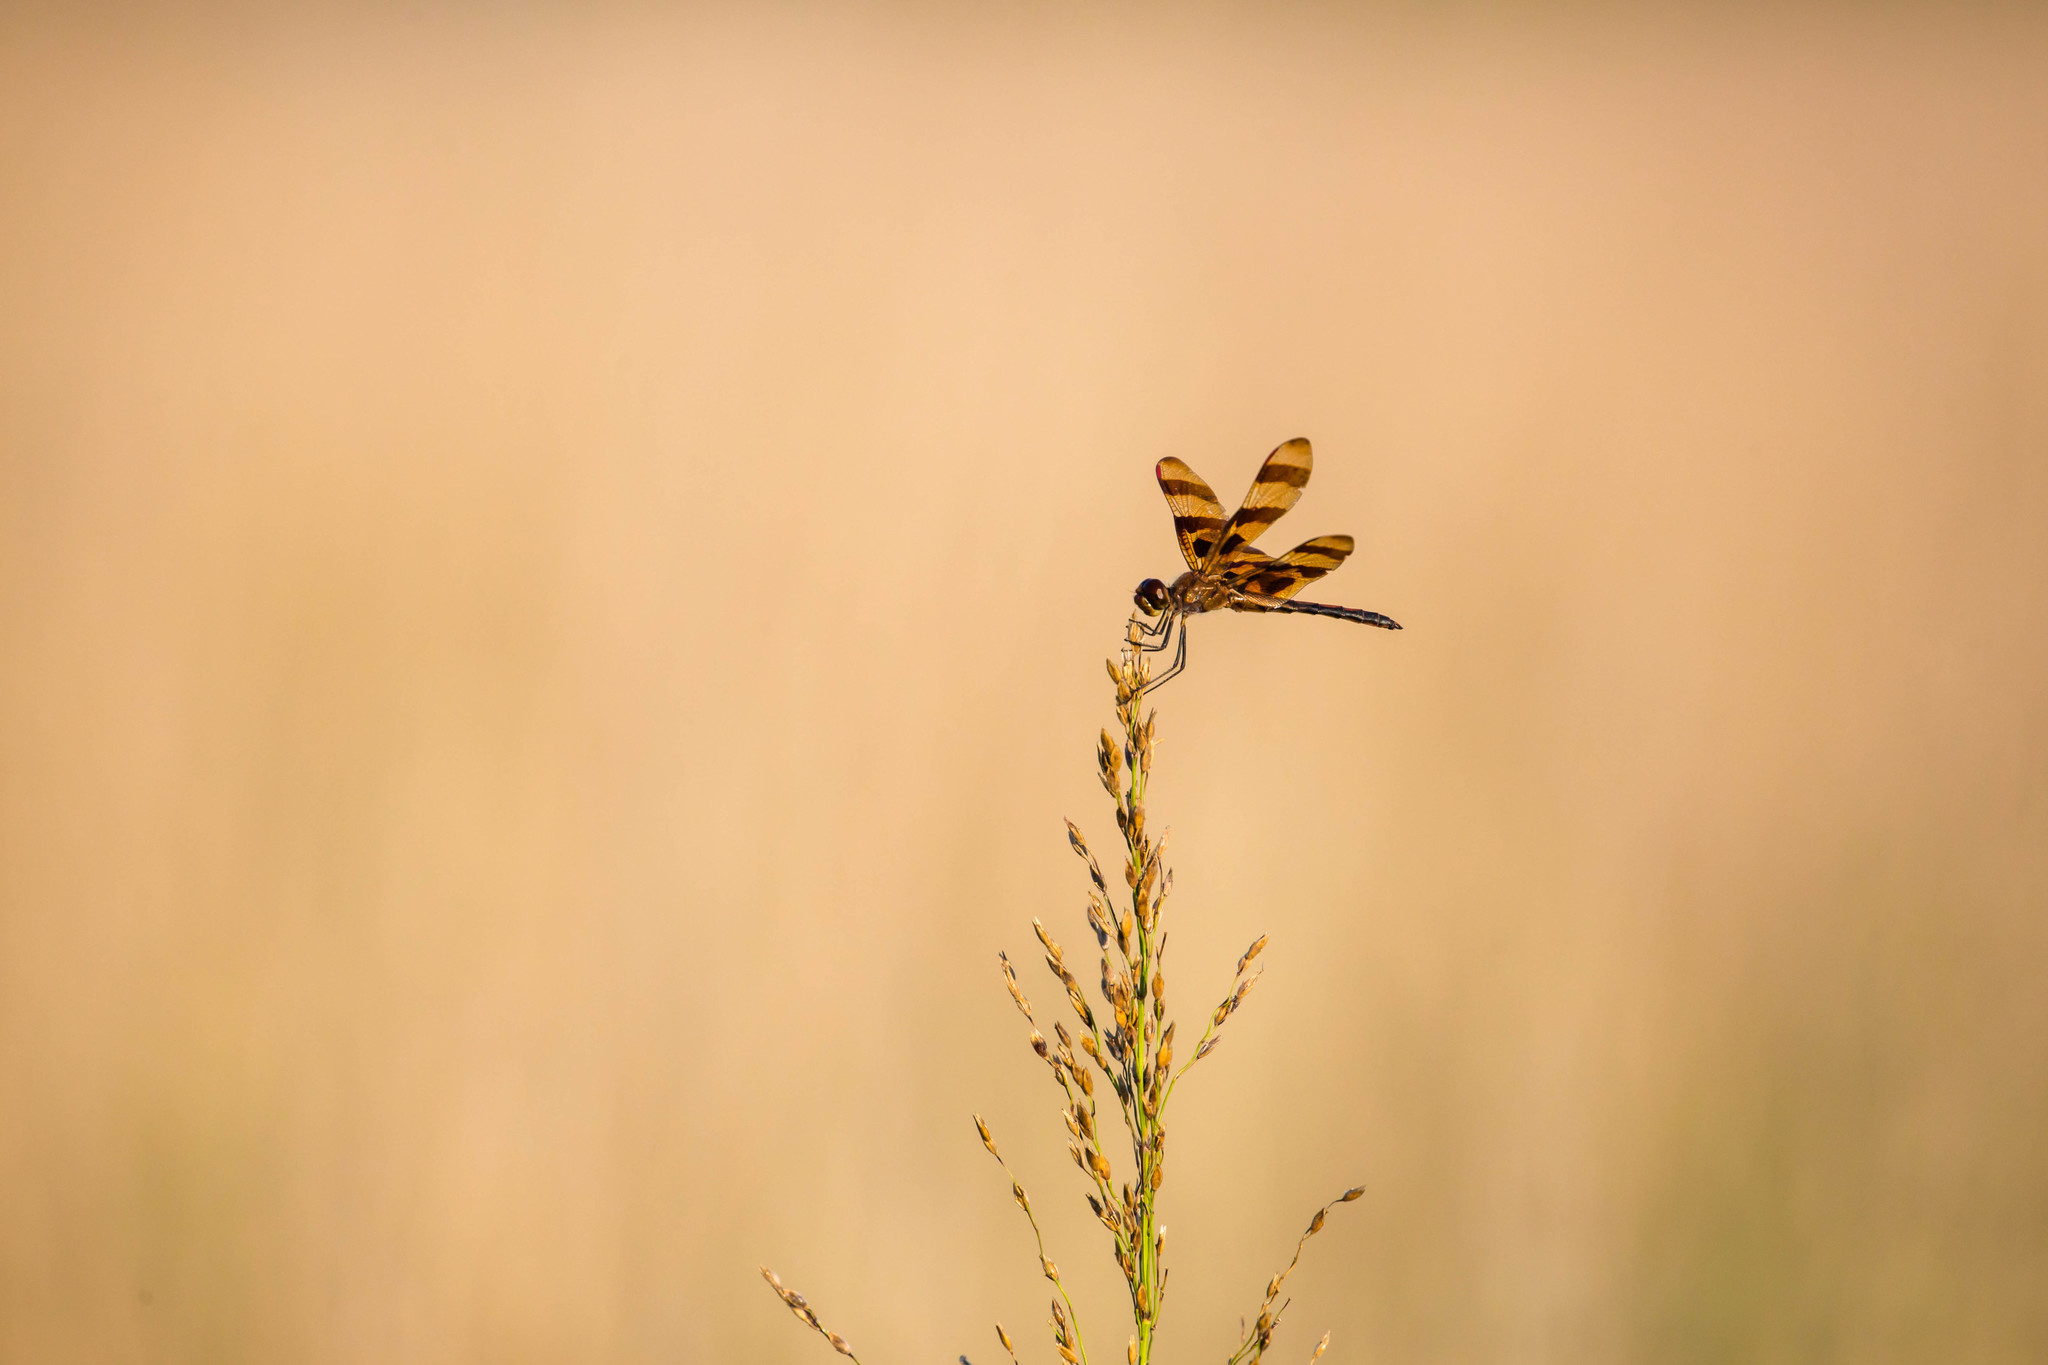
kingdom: Animalia
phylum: Arthropoda
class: Insecta
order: Odonata
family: Libellulidae
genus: Celithemis
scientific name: Celithemis eponina
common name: Halloween pennant
